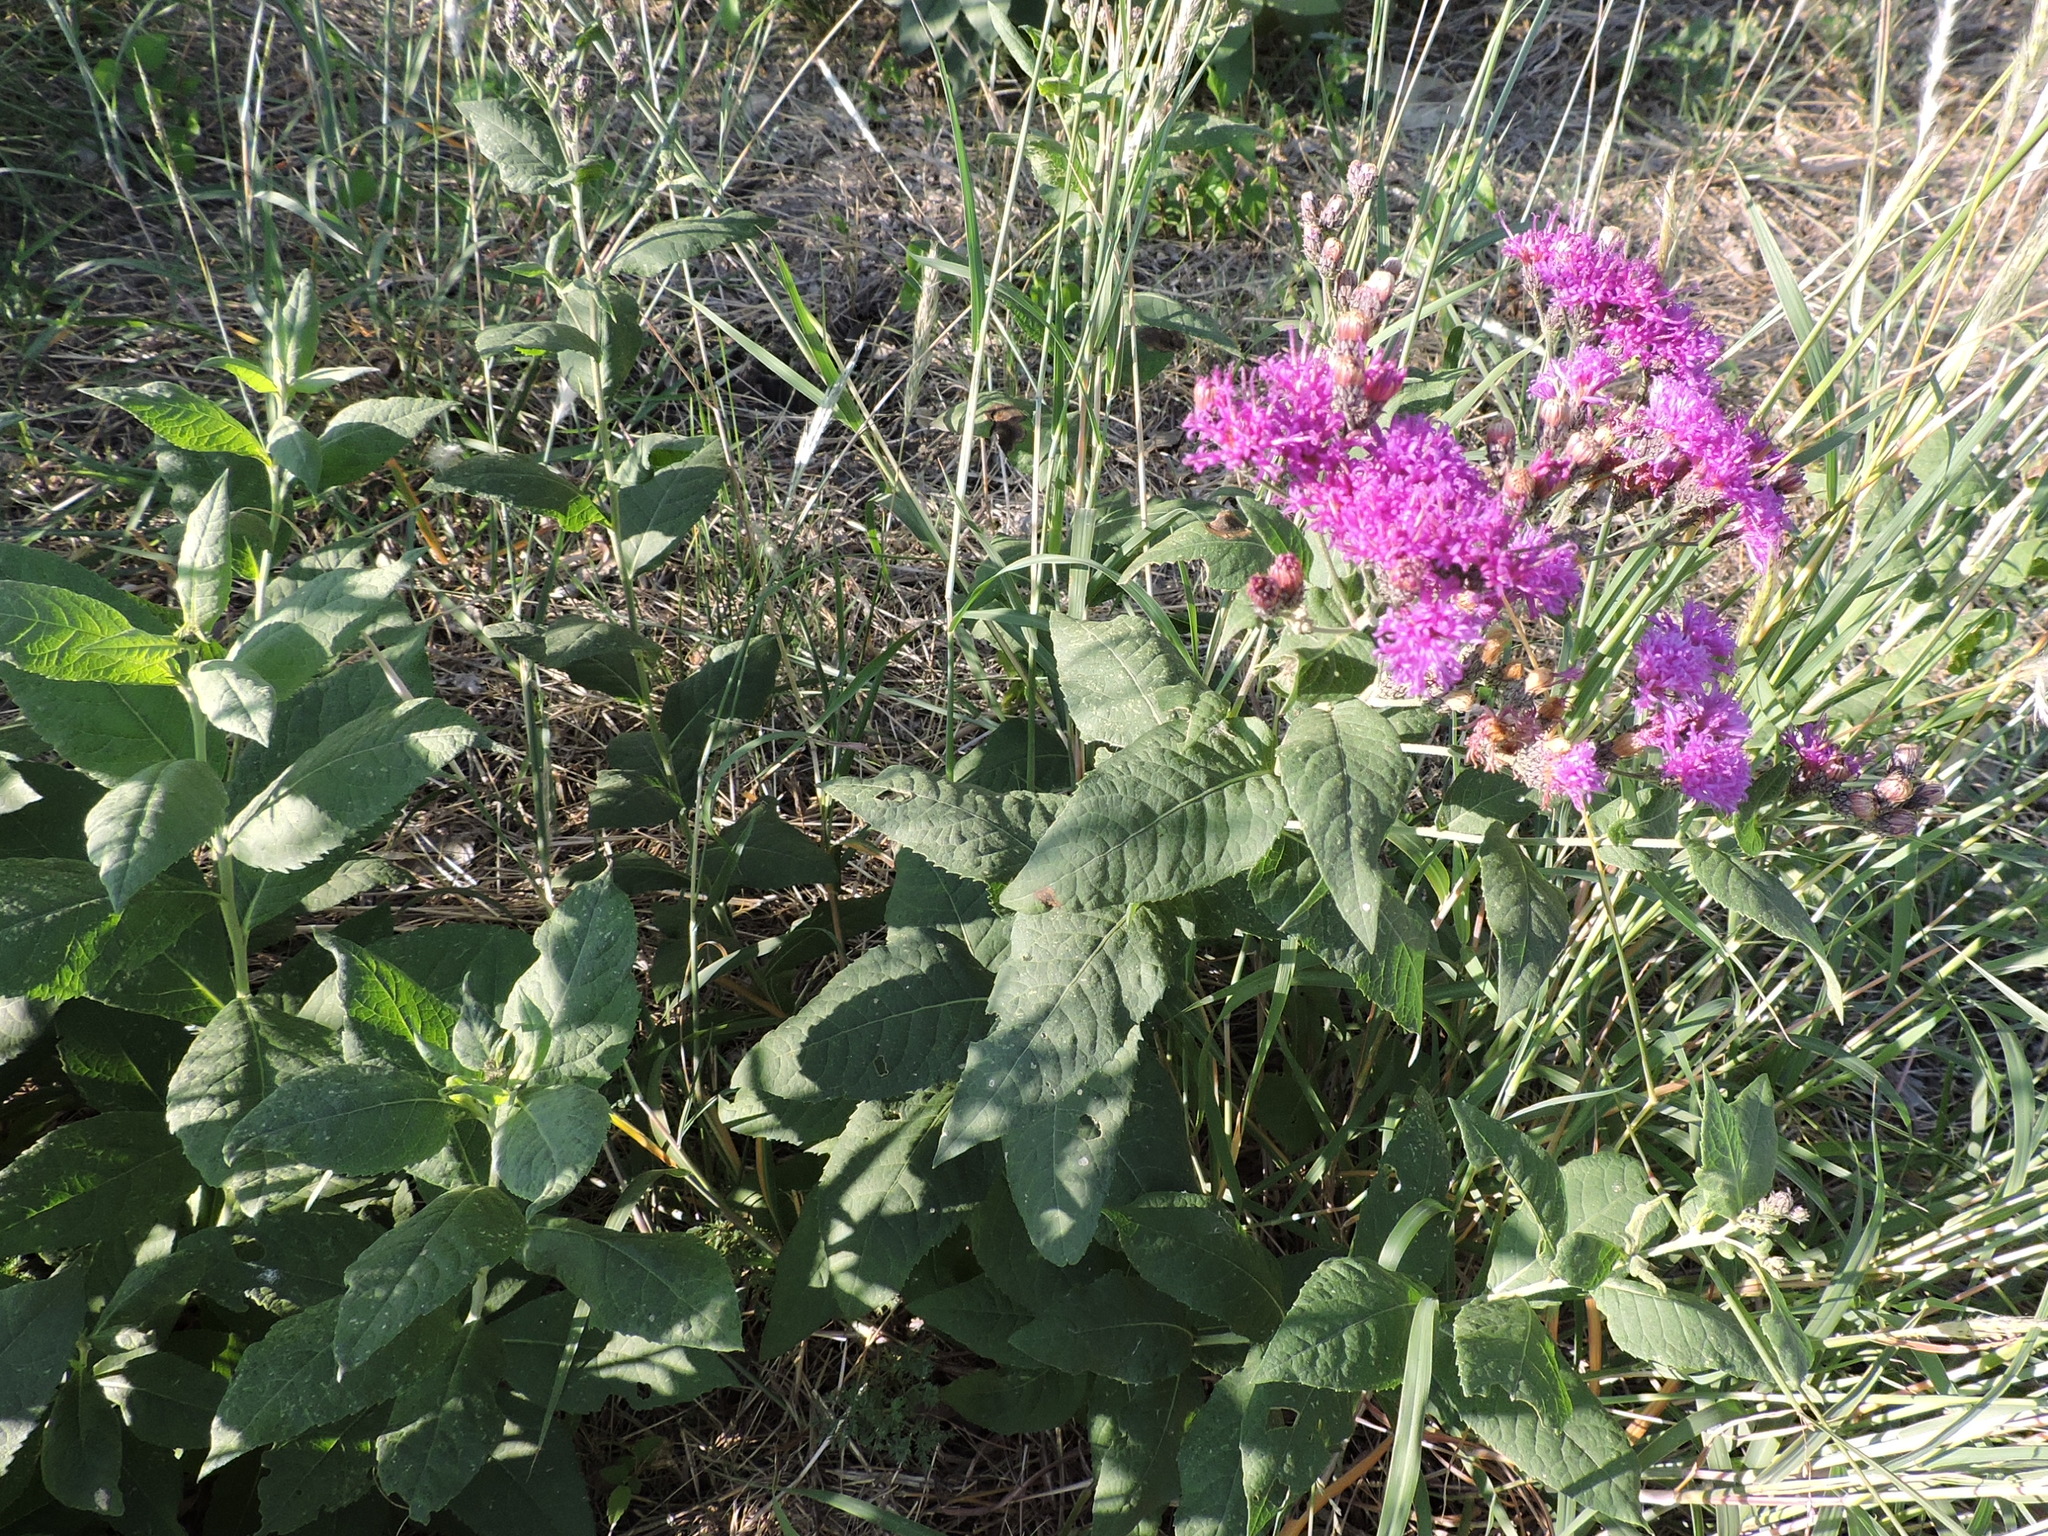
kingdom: Plantae
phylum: Tracheophyta
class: Magnoliopsida
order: Asterales
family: Asteraceae
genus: Vernonia
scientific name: Vernonia baldwinii
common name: Western ironweed
